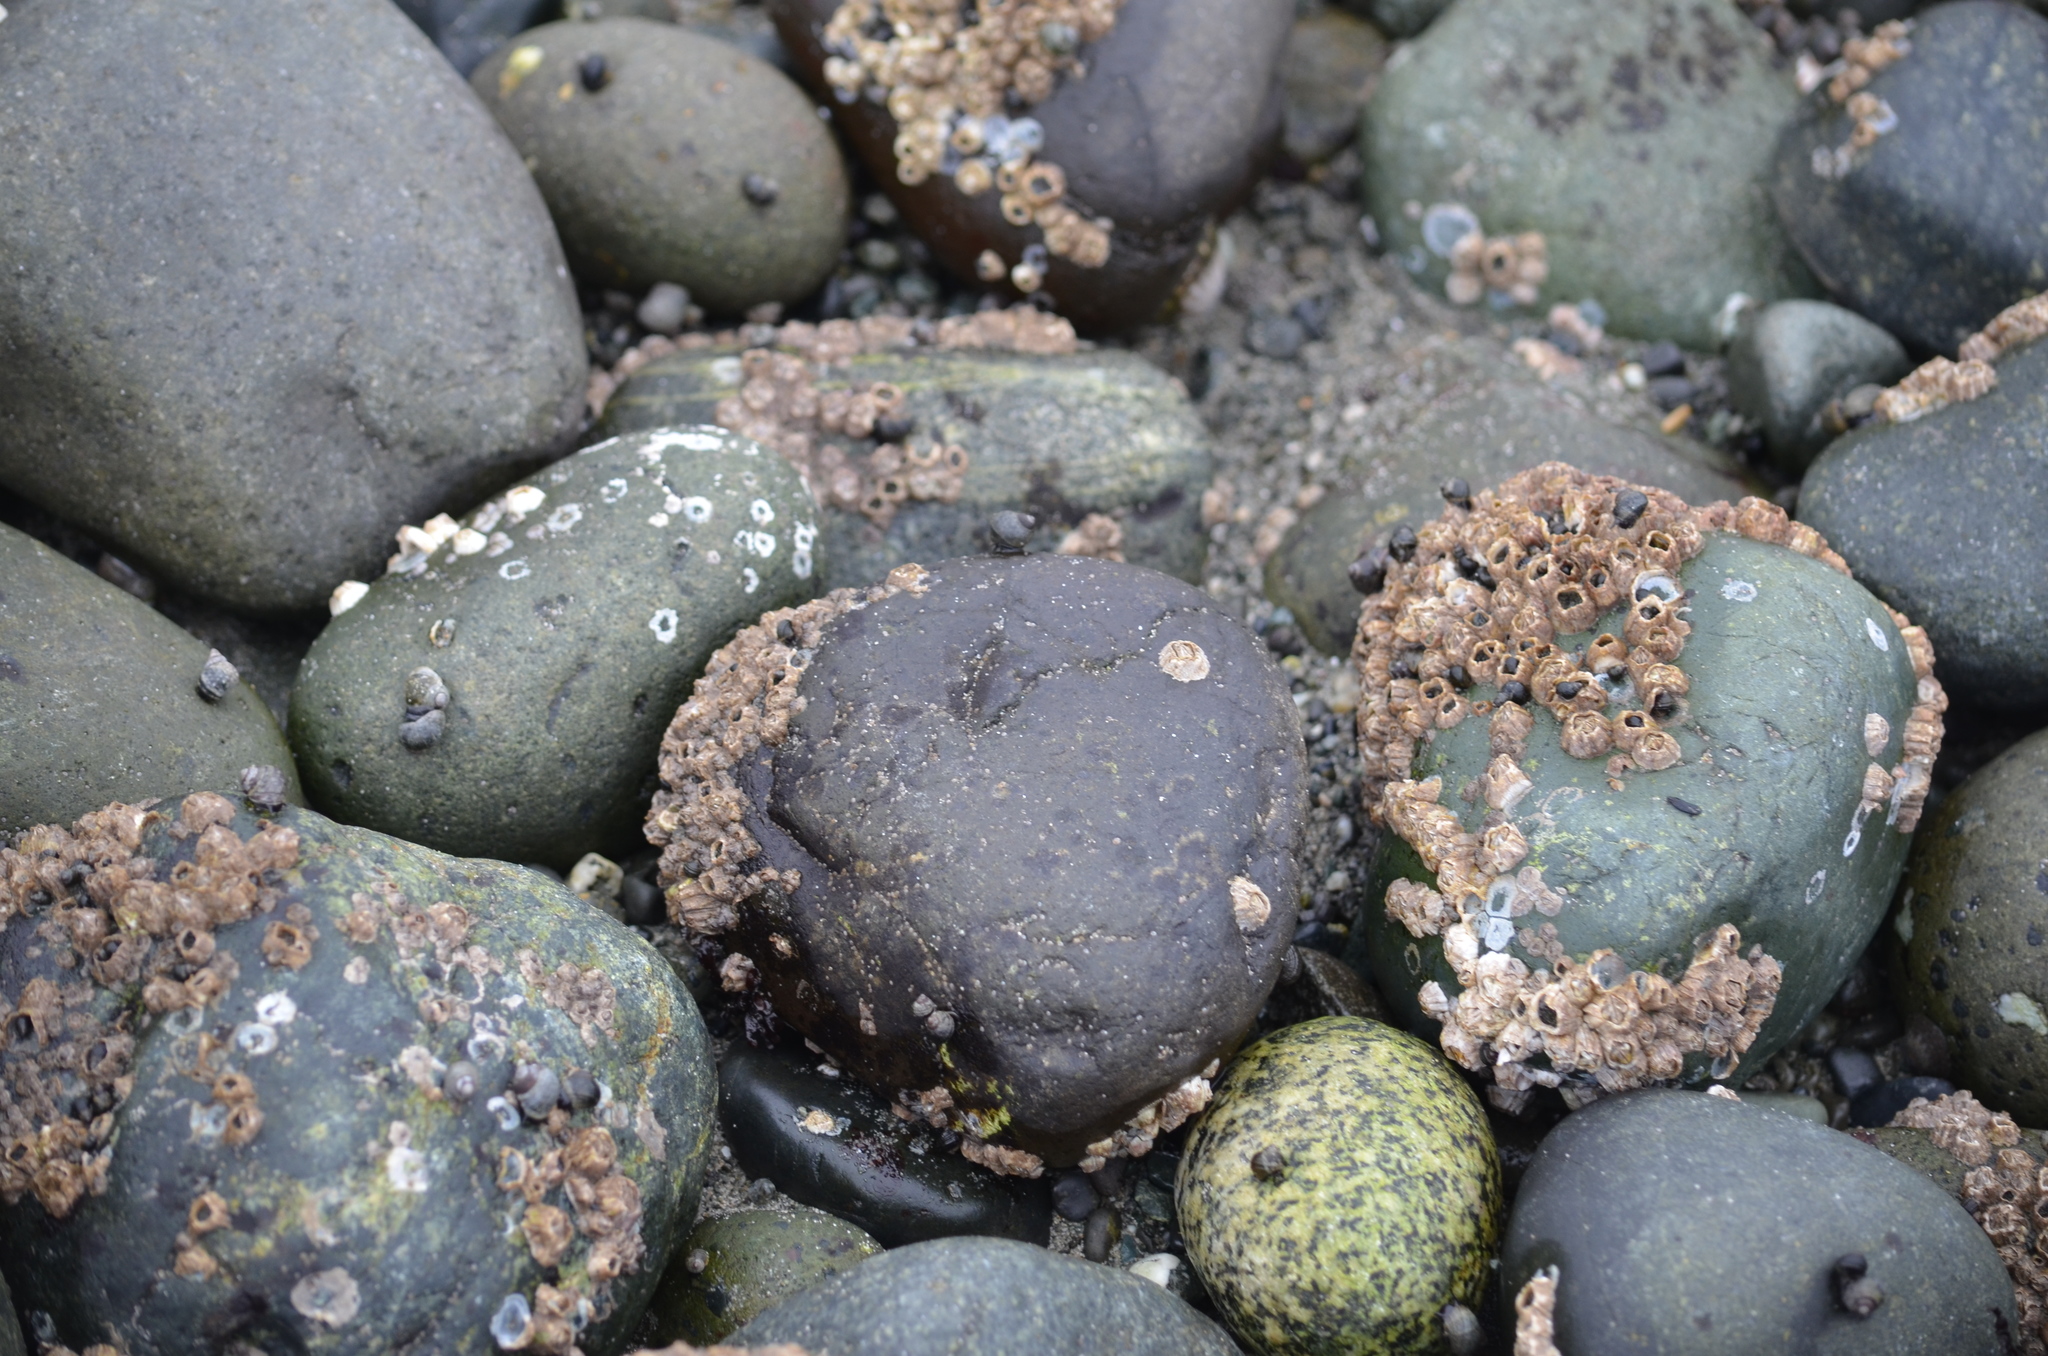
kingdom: Animalia
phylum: Arthropoda
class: Maxillopoda
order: Sessilia
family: Balanidae
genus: Balanus
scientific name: Balanus glandula
